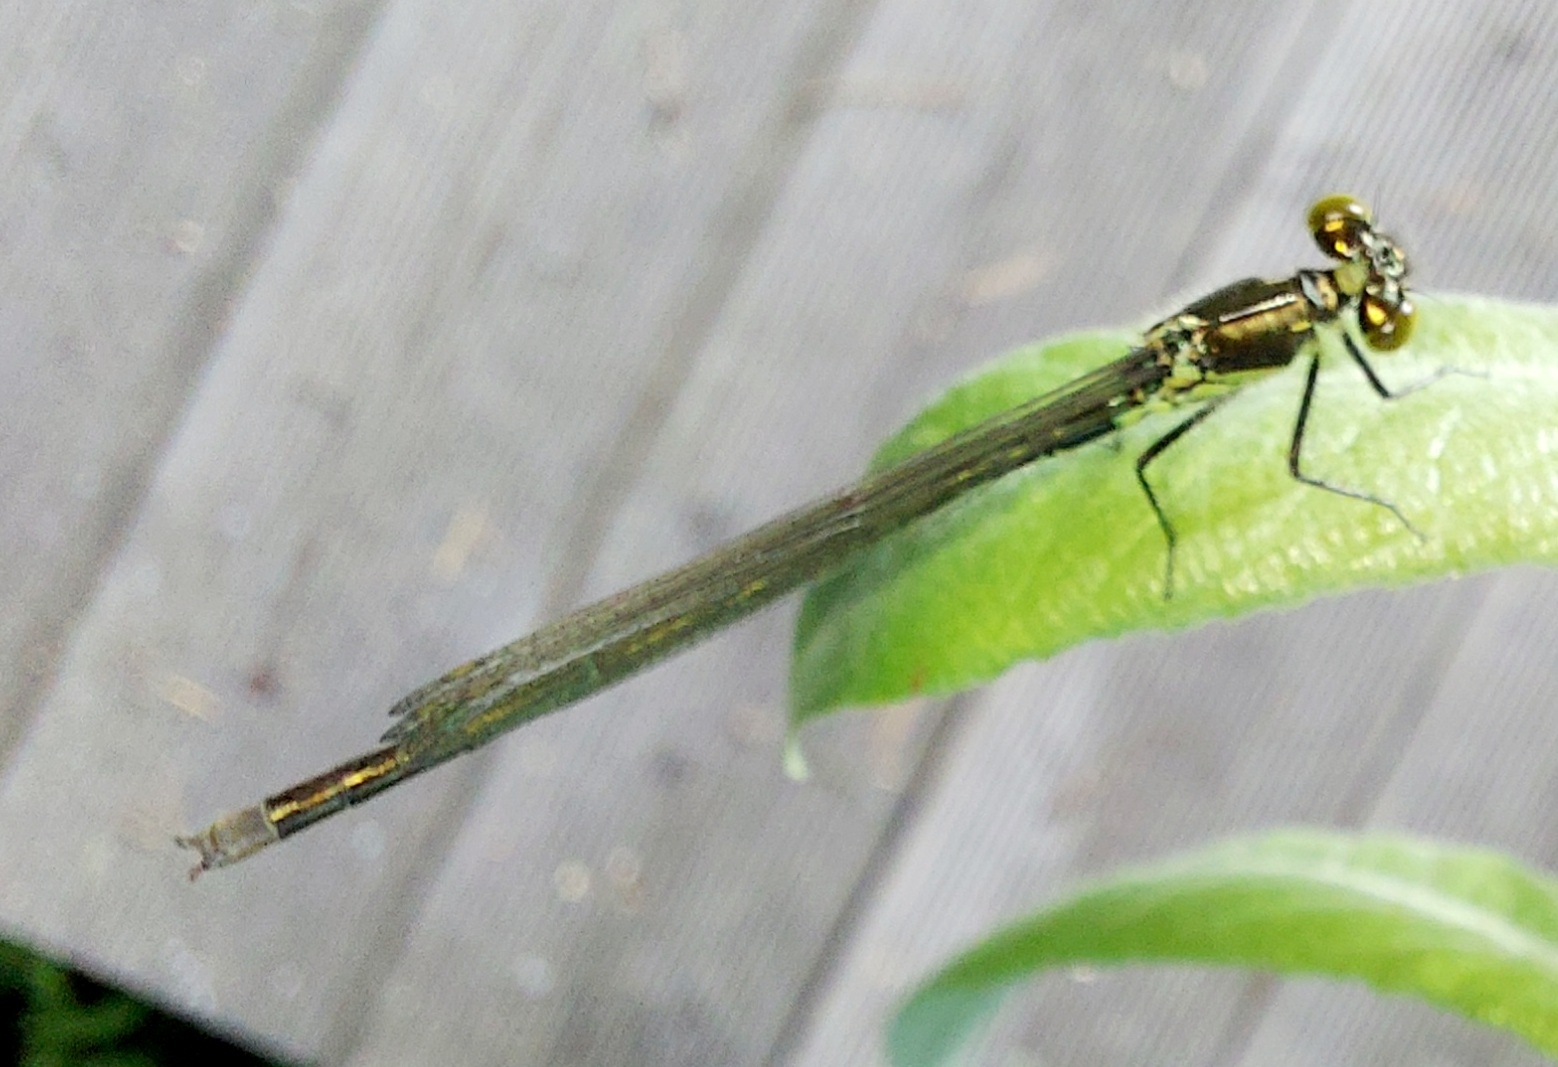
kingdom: Animalia
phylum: Arthropoda
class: Insecta
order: Odonata
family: Coenagrionidae
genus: Erythromma
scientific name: Erythromma najas
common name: Red-eyed damselfly
